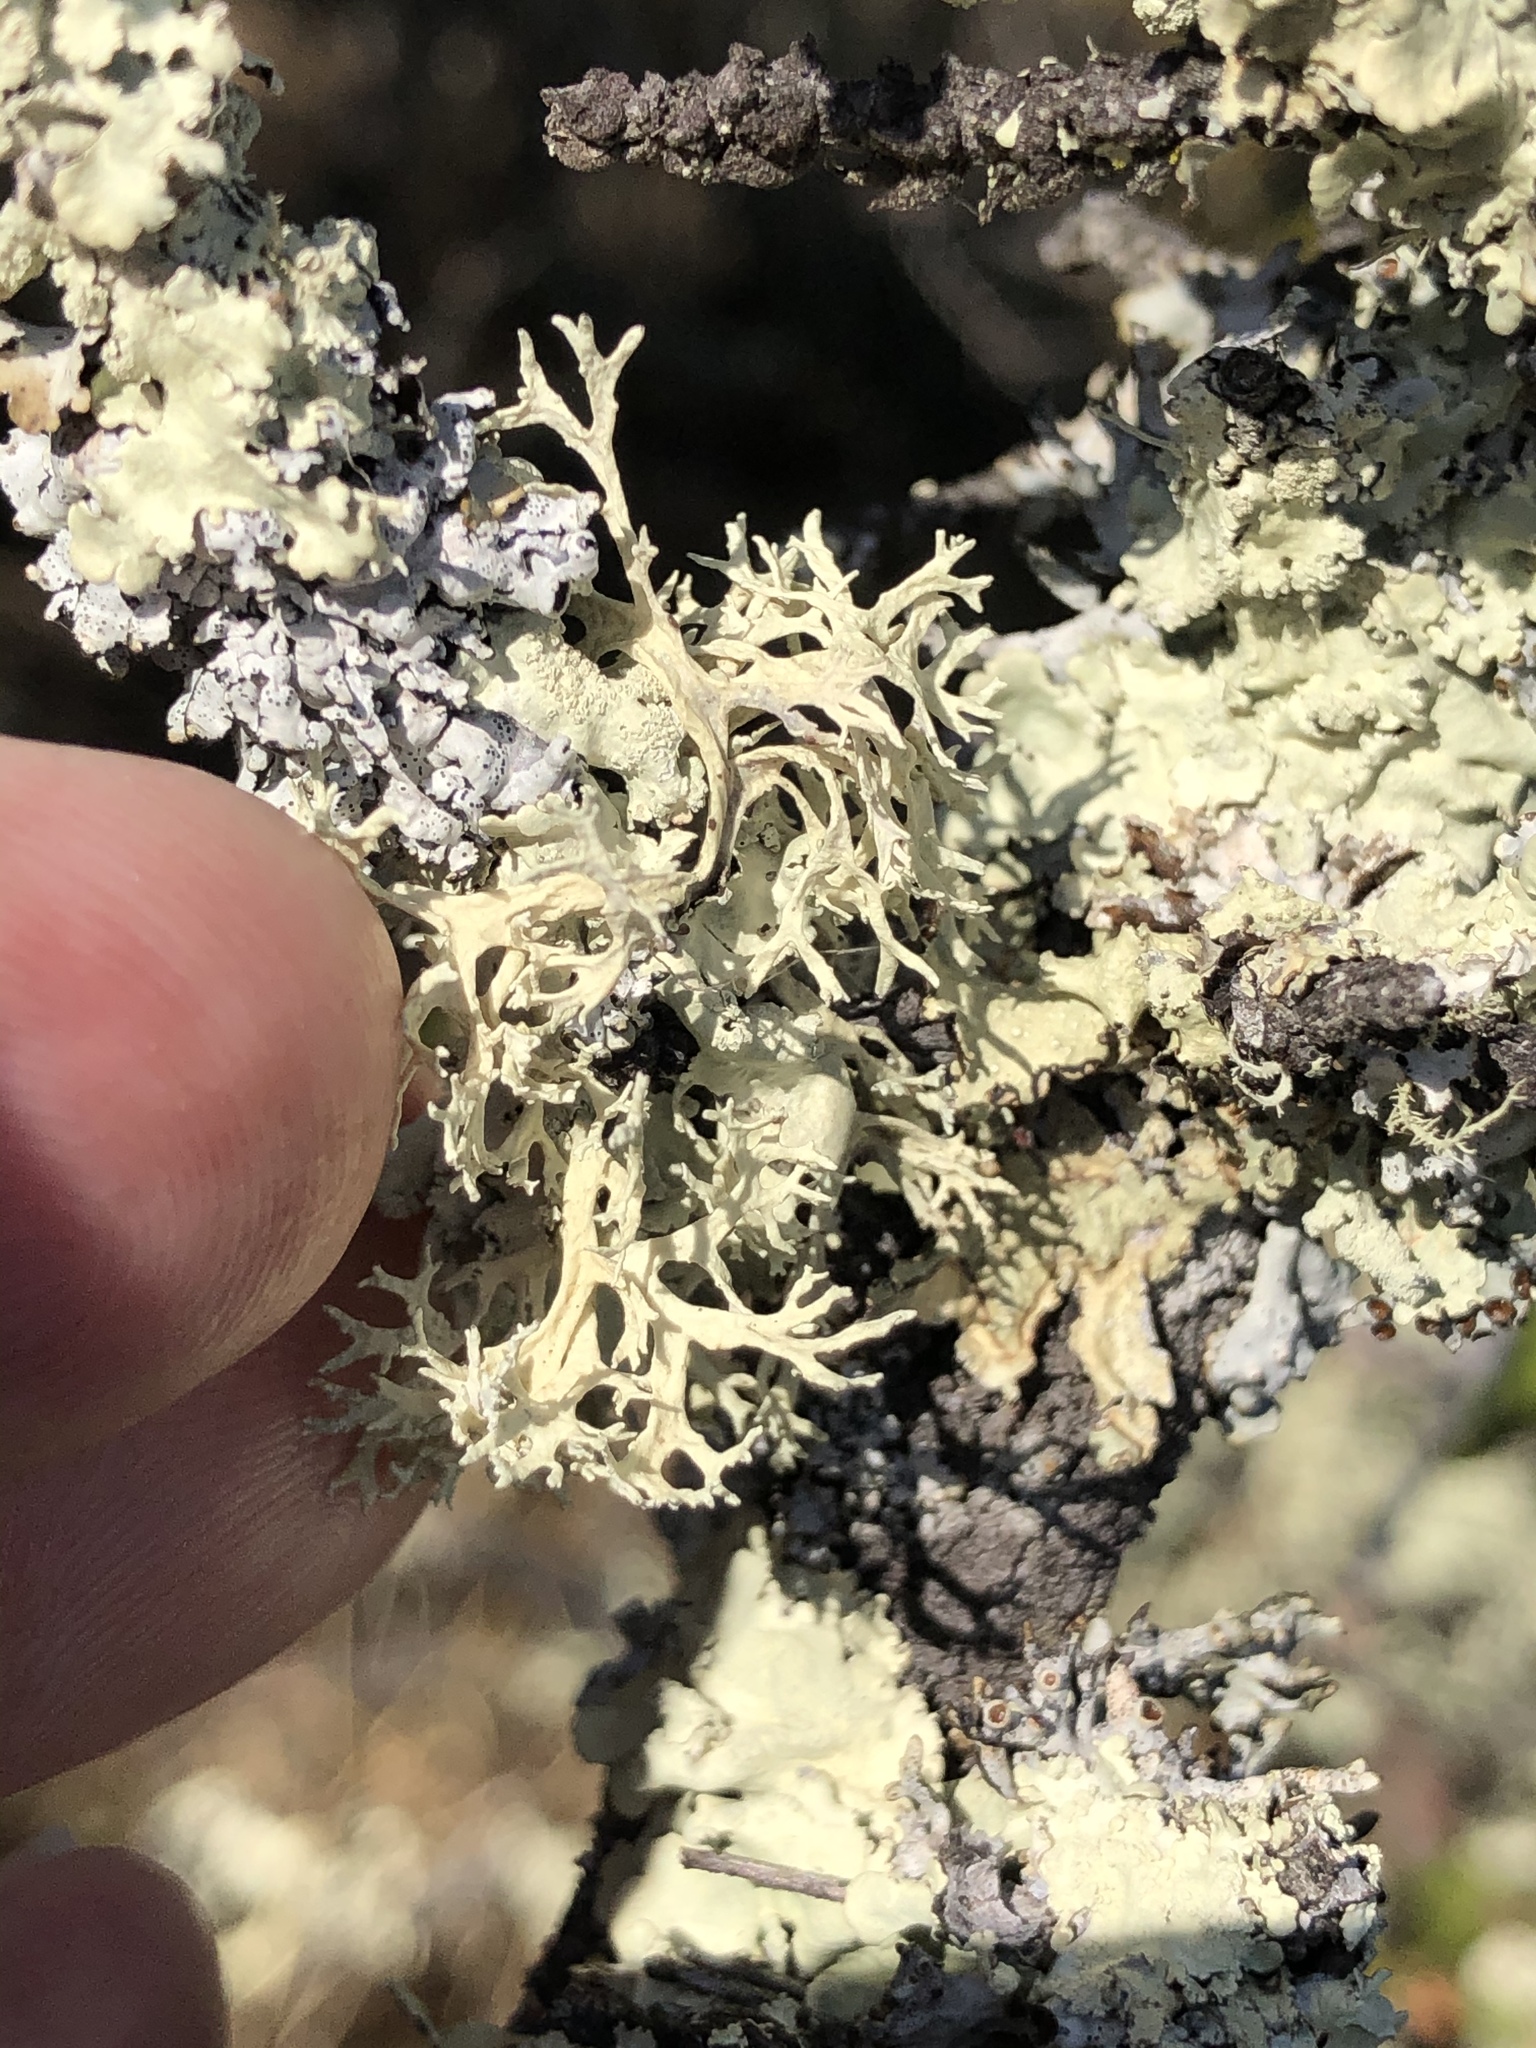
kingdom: Fungi
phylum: Ascomycota
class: Lecanoromycetes
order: Lecanorales
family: Parmeliaceae
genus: Evernia
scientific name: Evernia prunastri
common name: Oak moss
